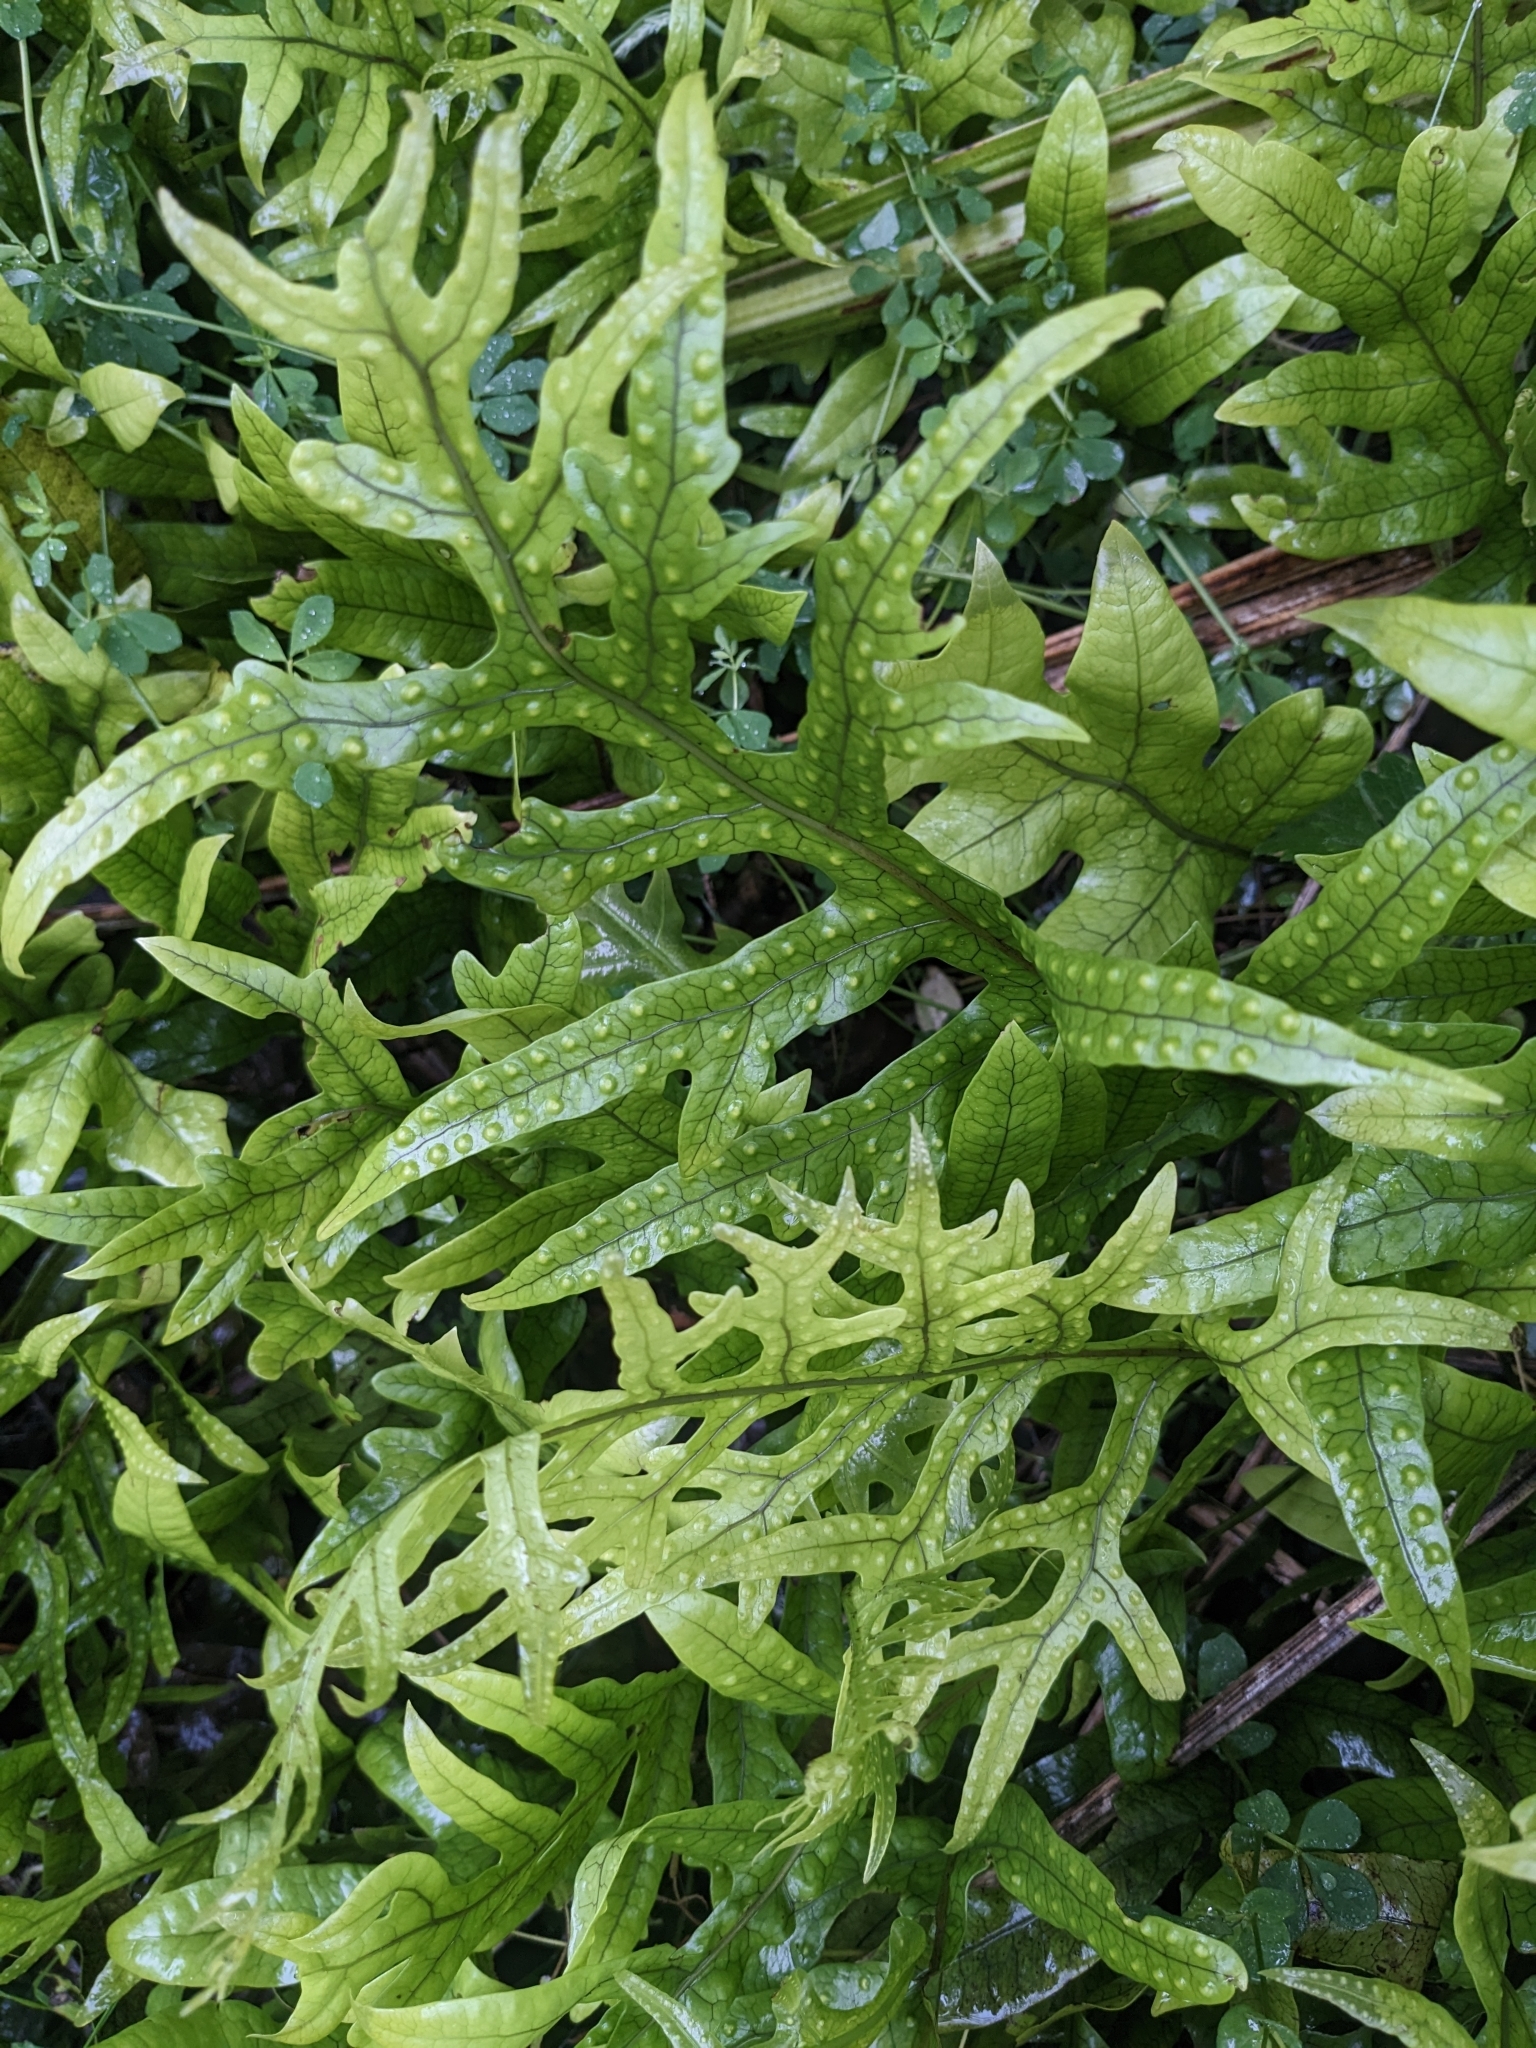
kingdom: Plantae
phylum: Tracheophyta
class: Polypodiopsida
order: Polypodiales
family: Polypodiaceae
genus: Lecanopteris
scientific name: Lecanopteris pustulata
